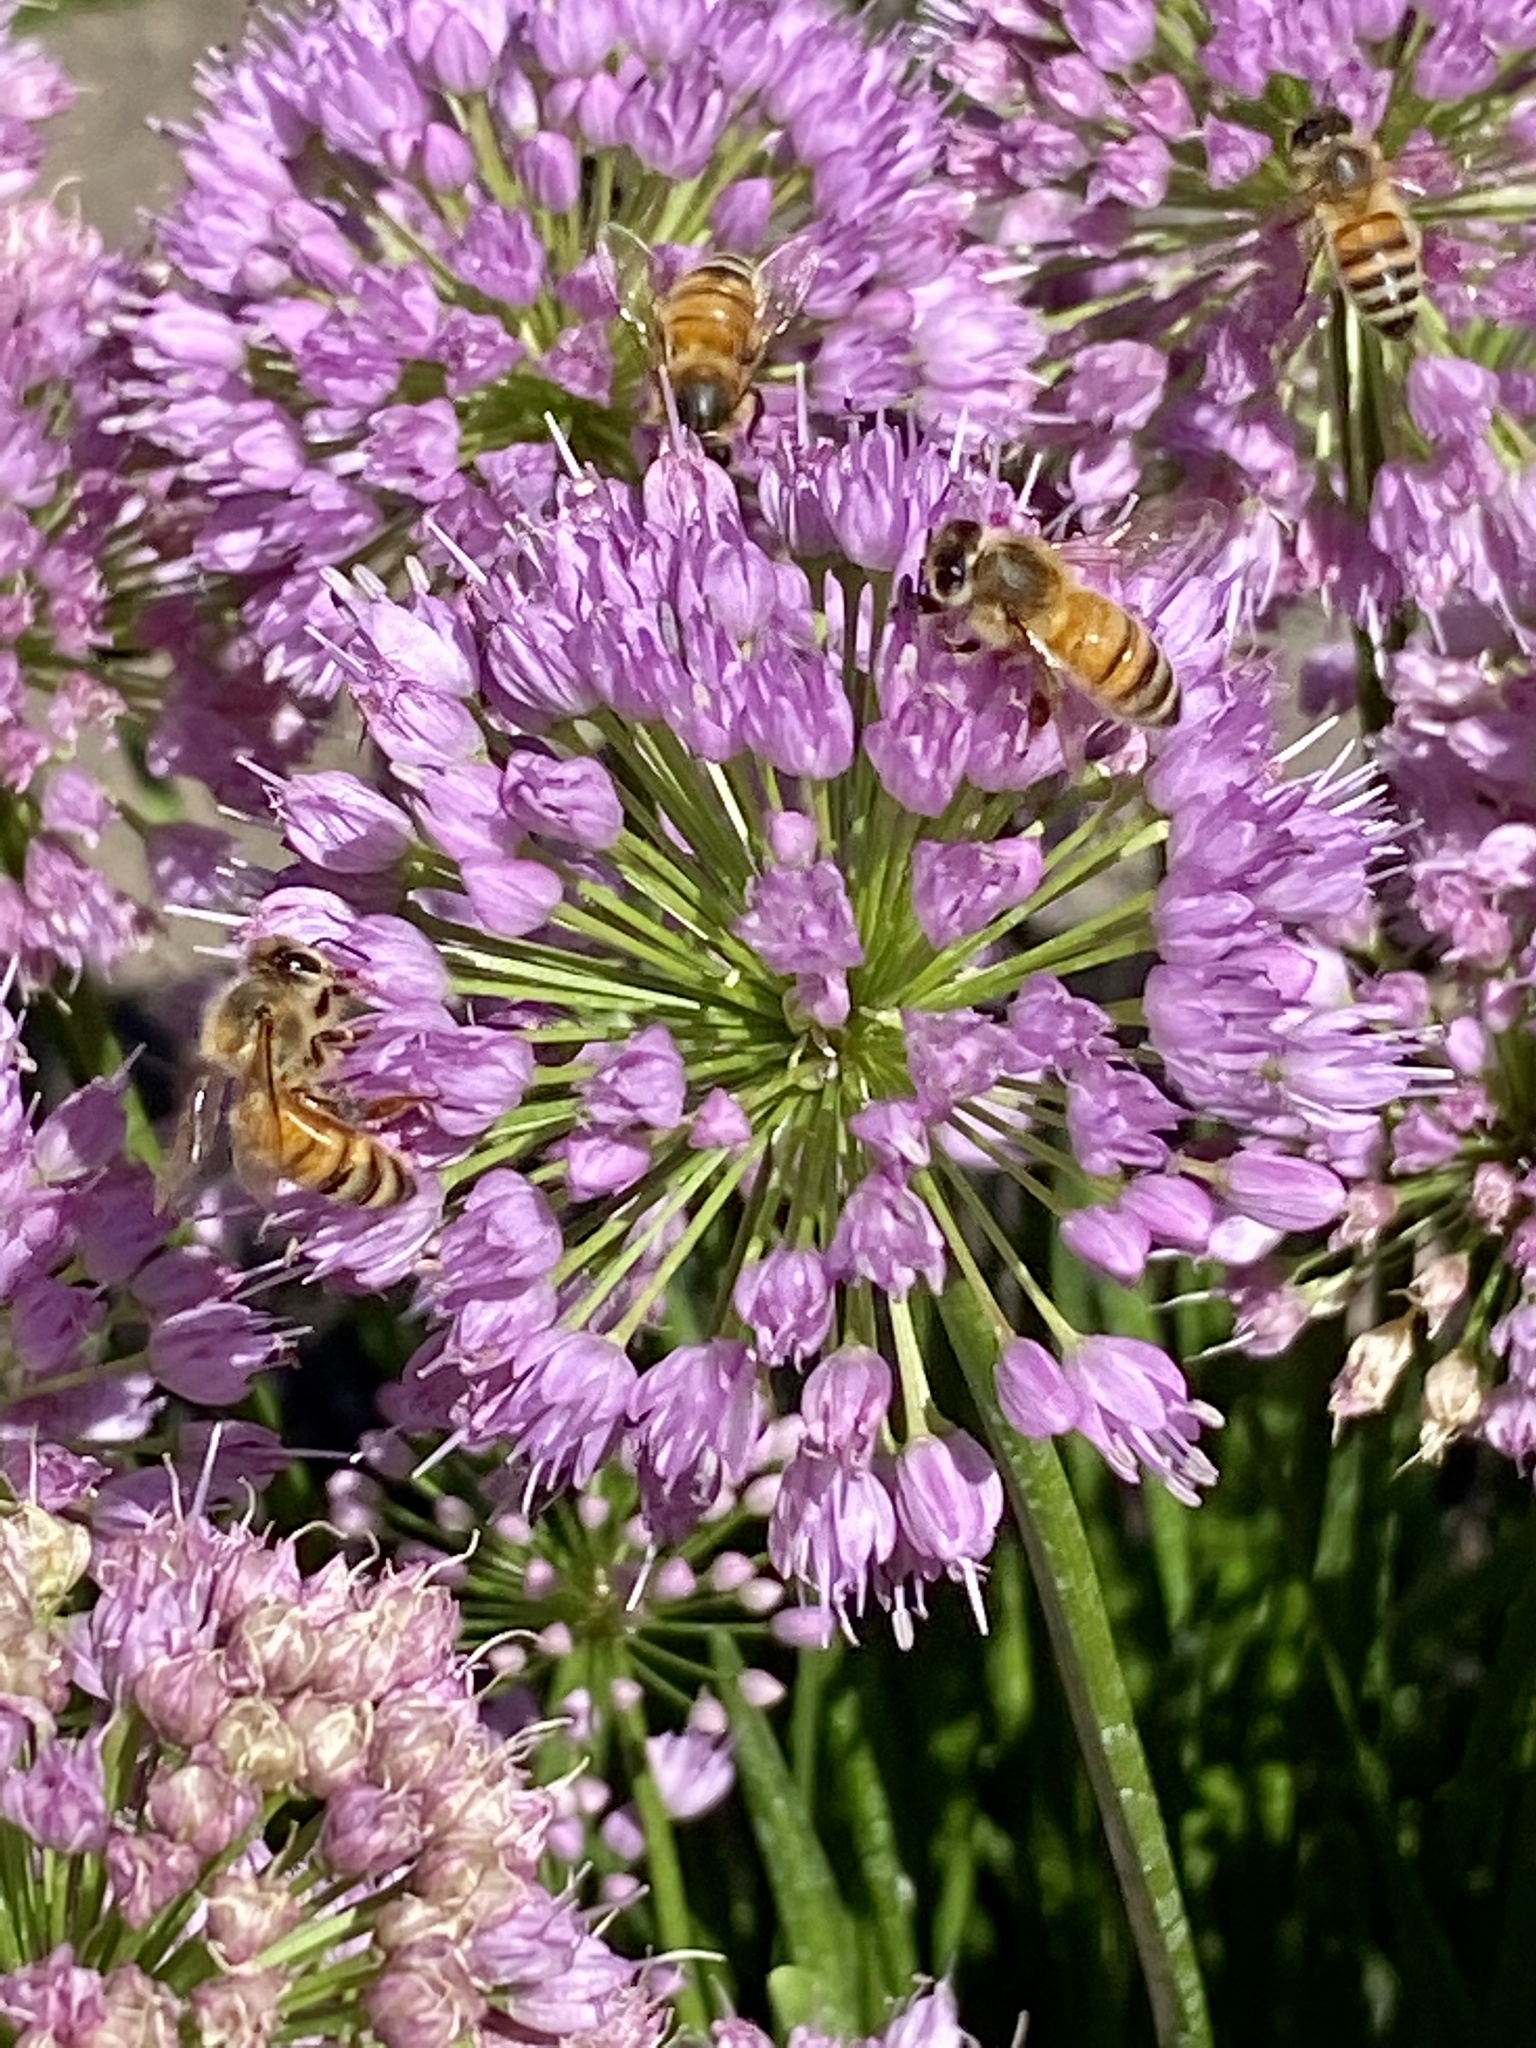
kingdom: Animalia
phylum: Arthropoda
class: Insecta
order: Hymenoptera
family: Apidae
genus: Apis
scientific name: Apis mellifera
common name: Honey bee
